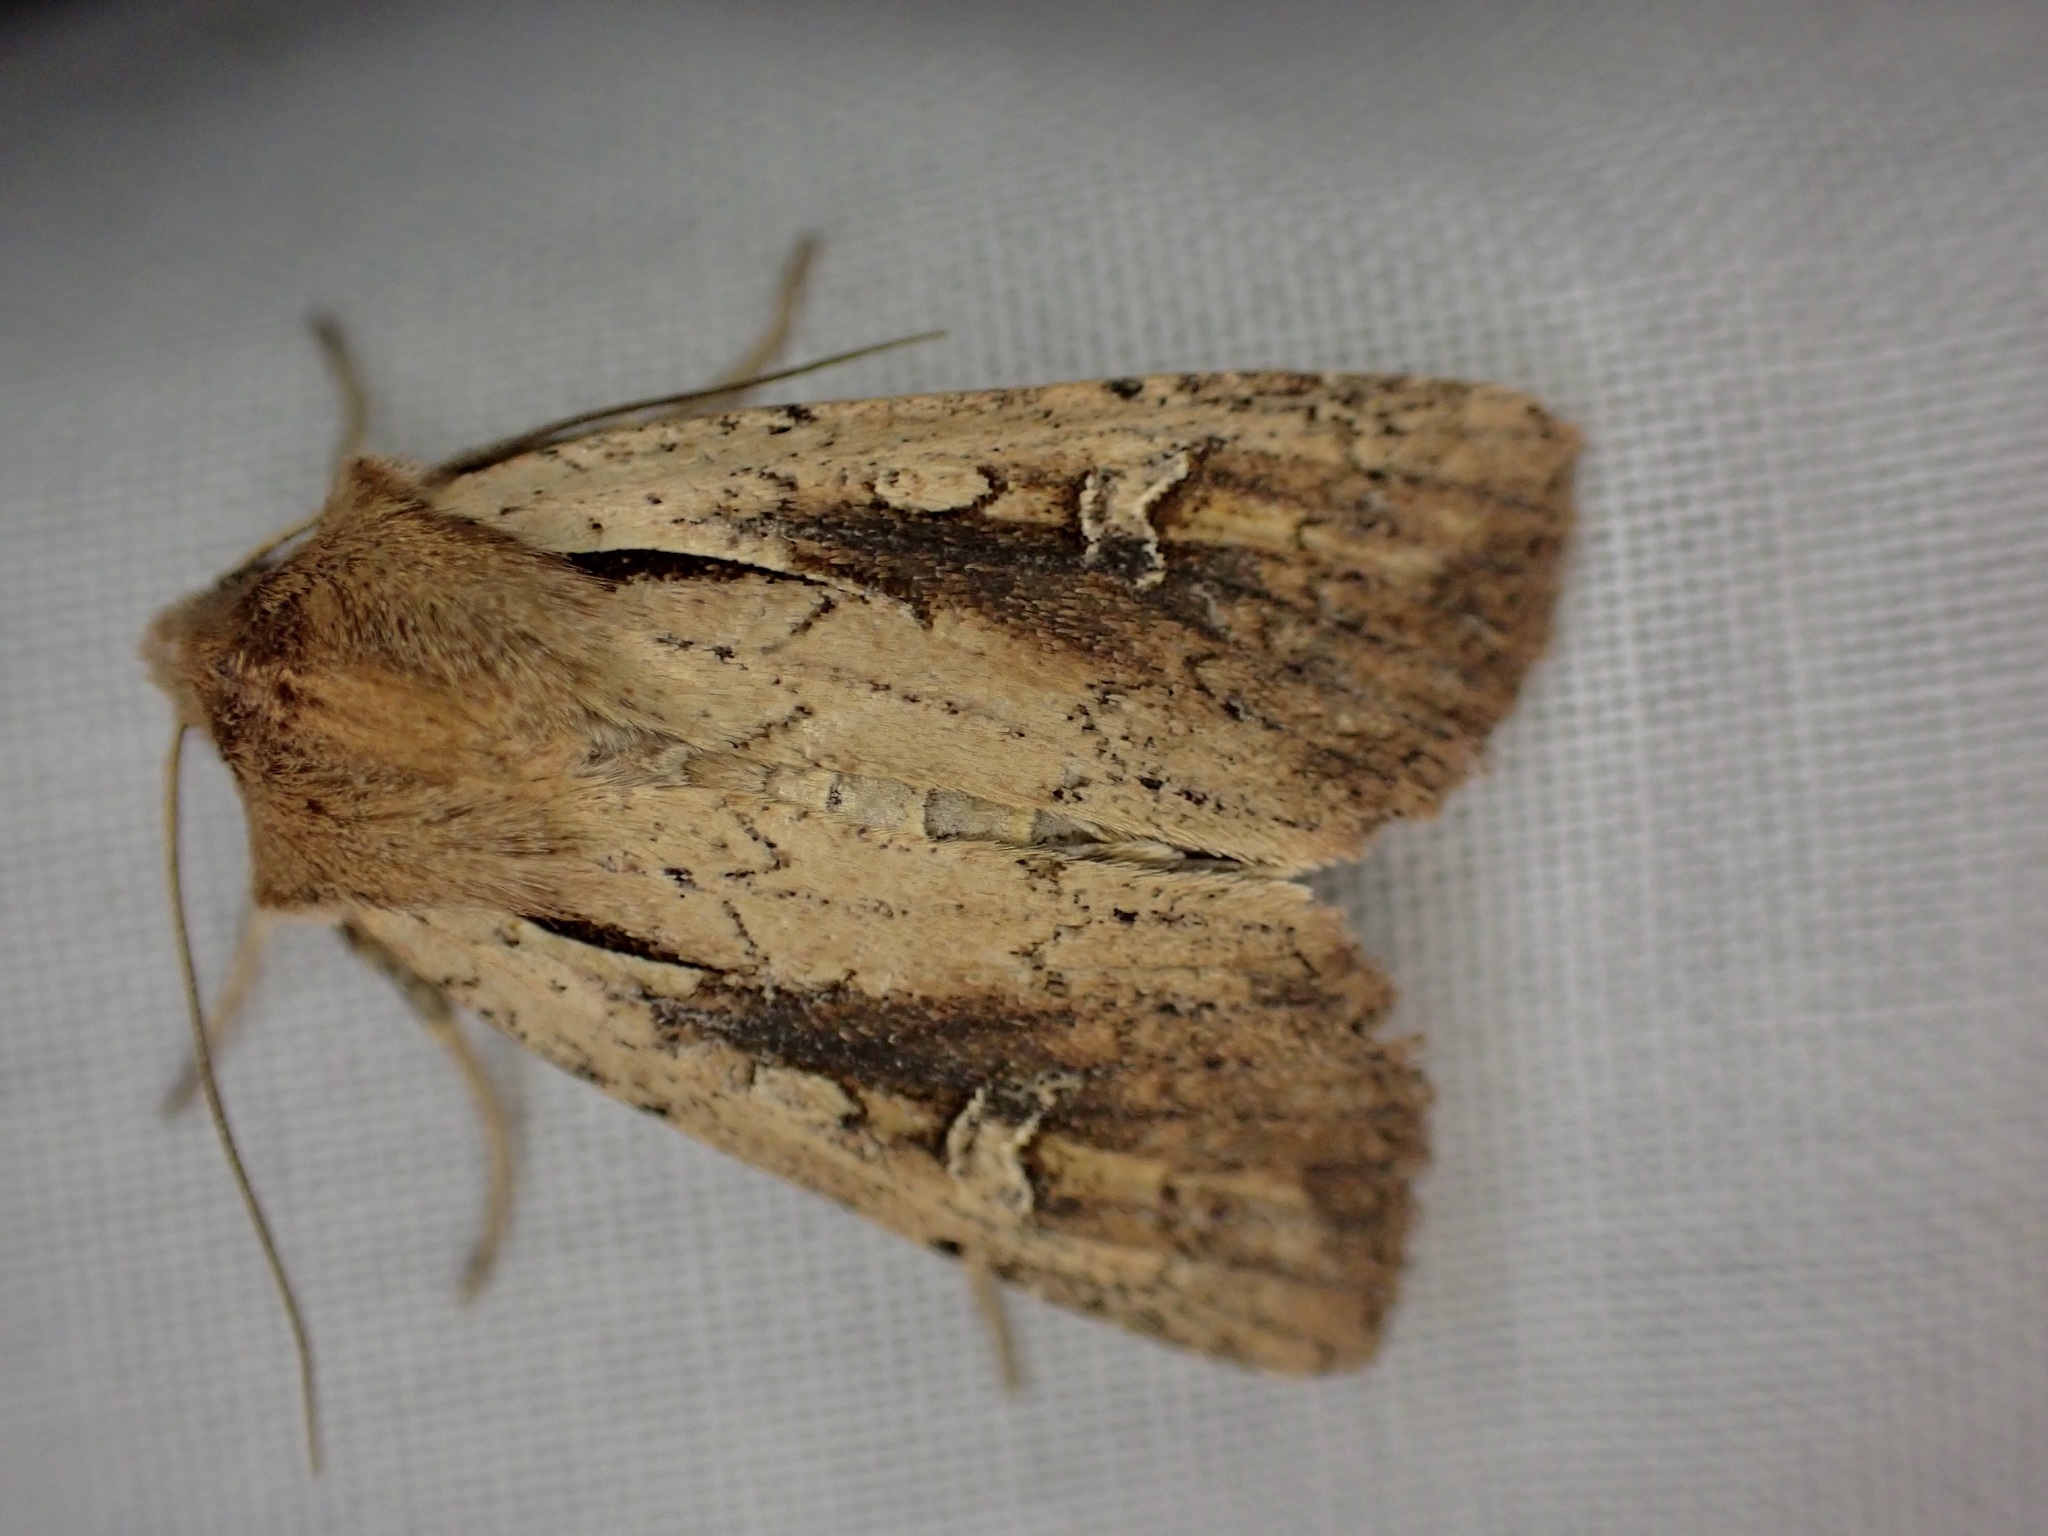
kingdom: Animalia
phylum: Arthropoda
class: Insecta
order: Lepidoptera
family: Noctuidae
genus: Ichneutica
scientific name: Ichneutica atristriga
